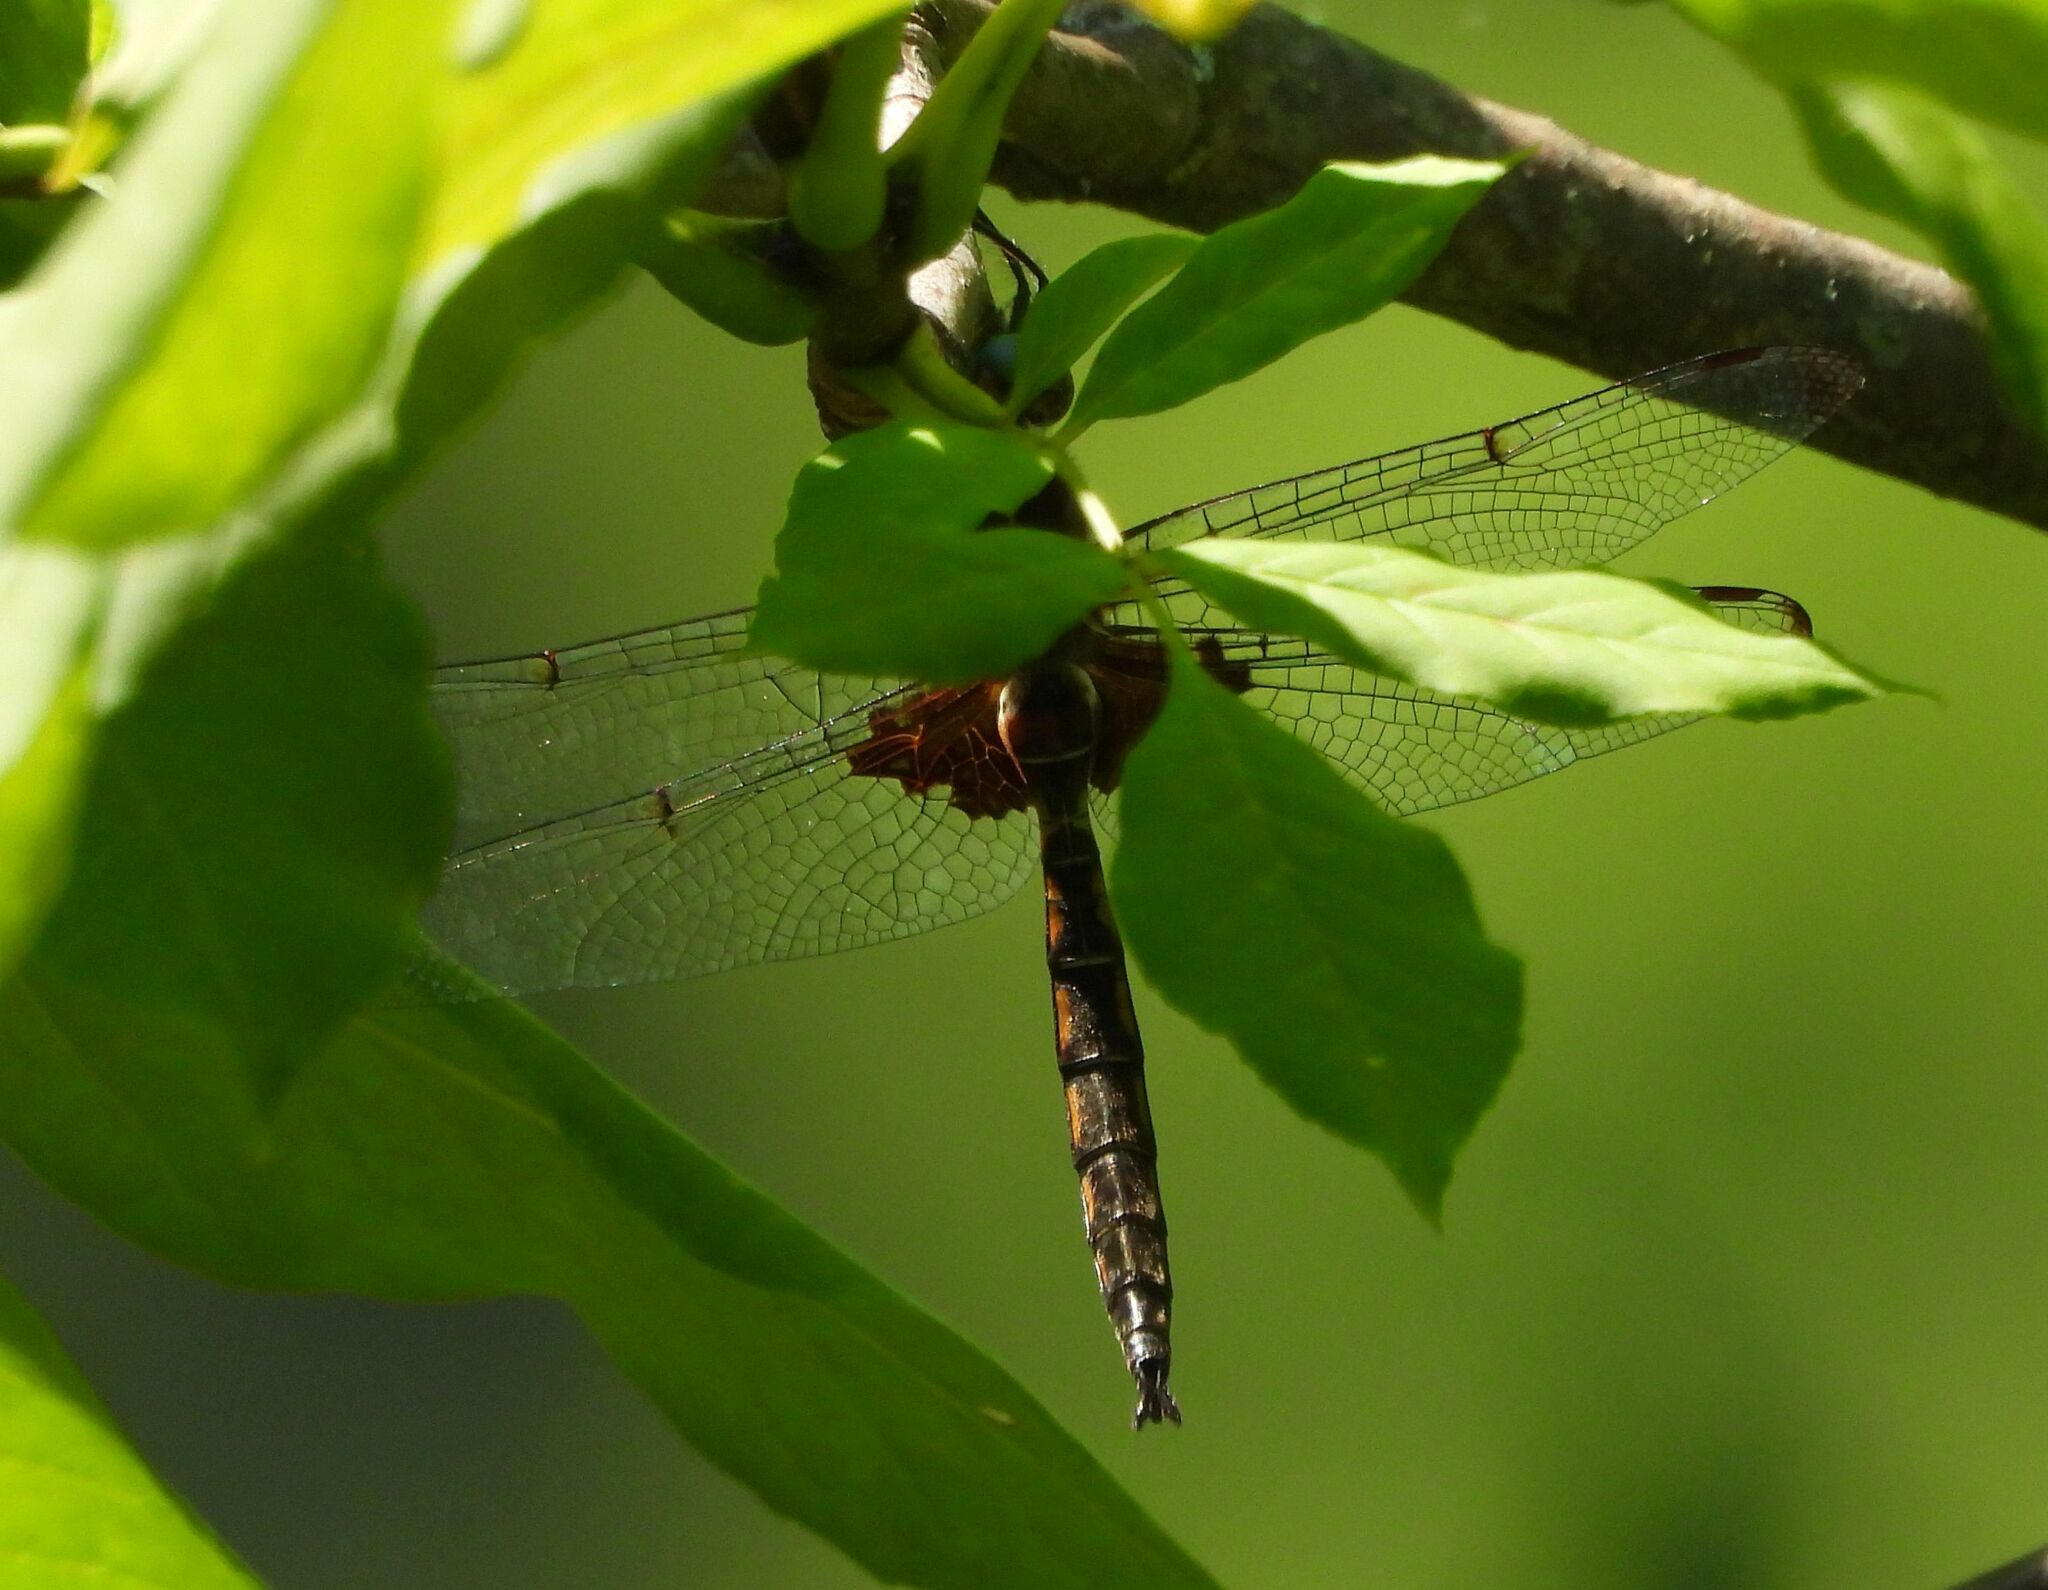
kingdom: Animalia
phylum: Arthropoda
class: Insecta
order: Odonata
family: Corduliidae
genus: Epitheca
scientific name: Epitheca princeps
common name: Prince baskettail
